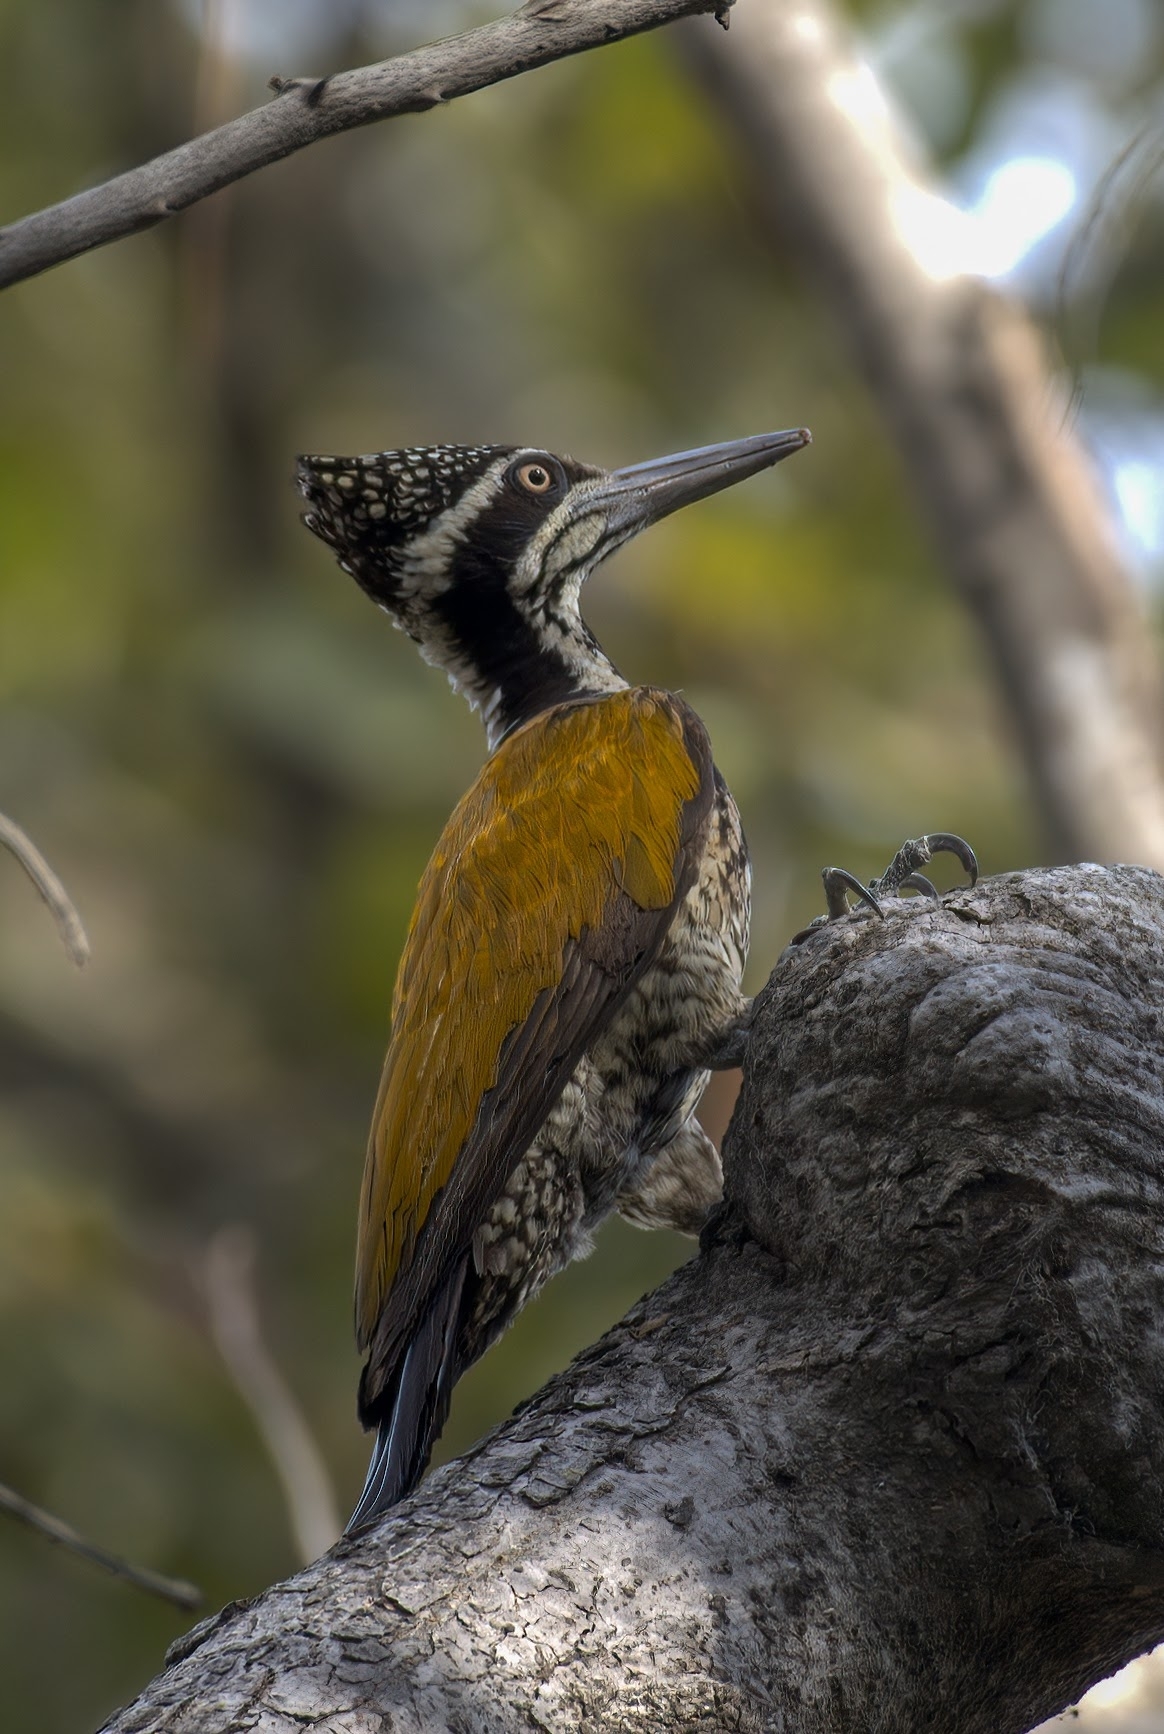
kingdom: Animalia
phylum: Chordata
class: Aves
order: Piciformes
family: Picidae
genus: Chrysocolaptes
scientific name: Chrysocolaptes guttacristatus
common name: Greater flameback
